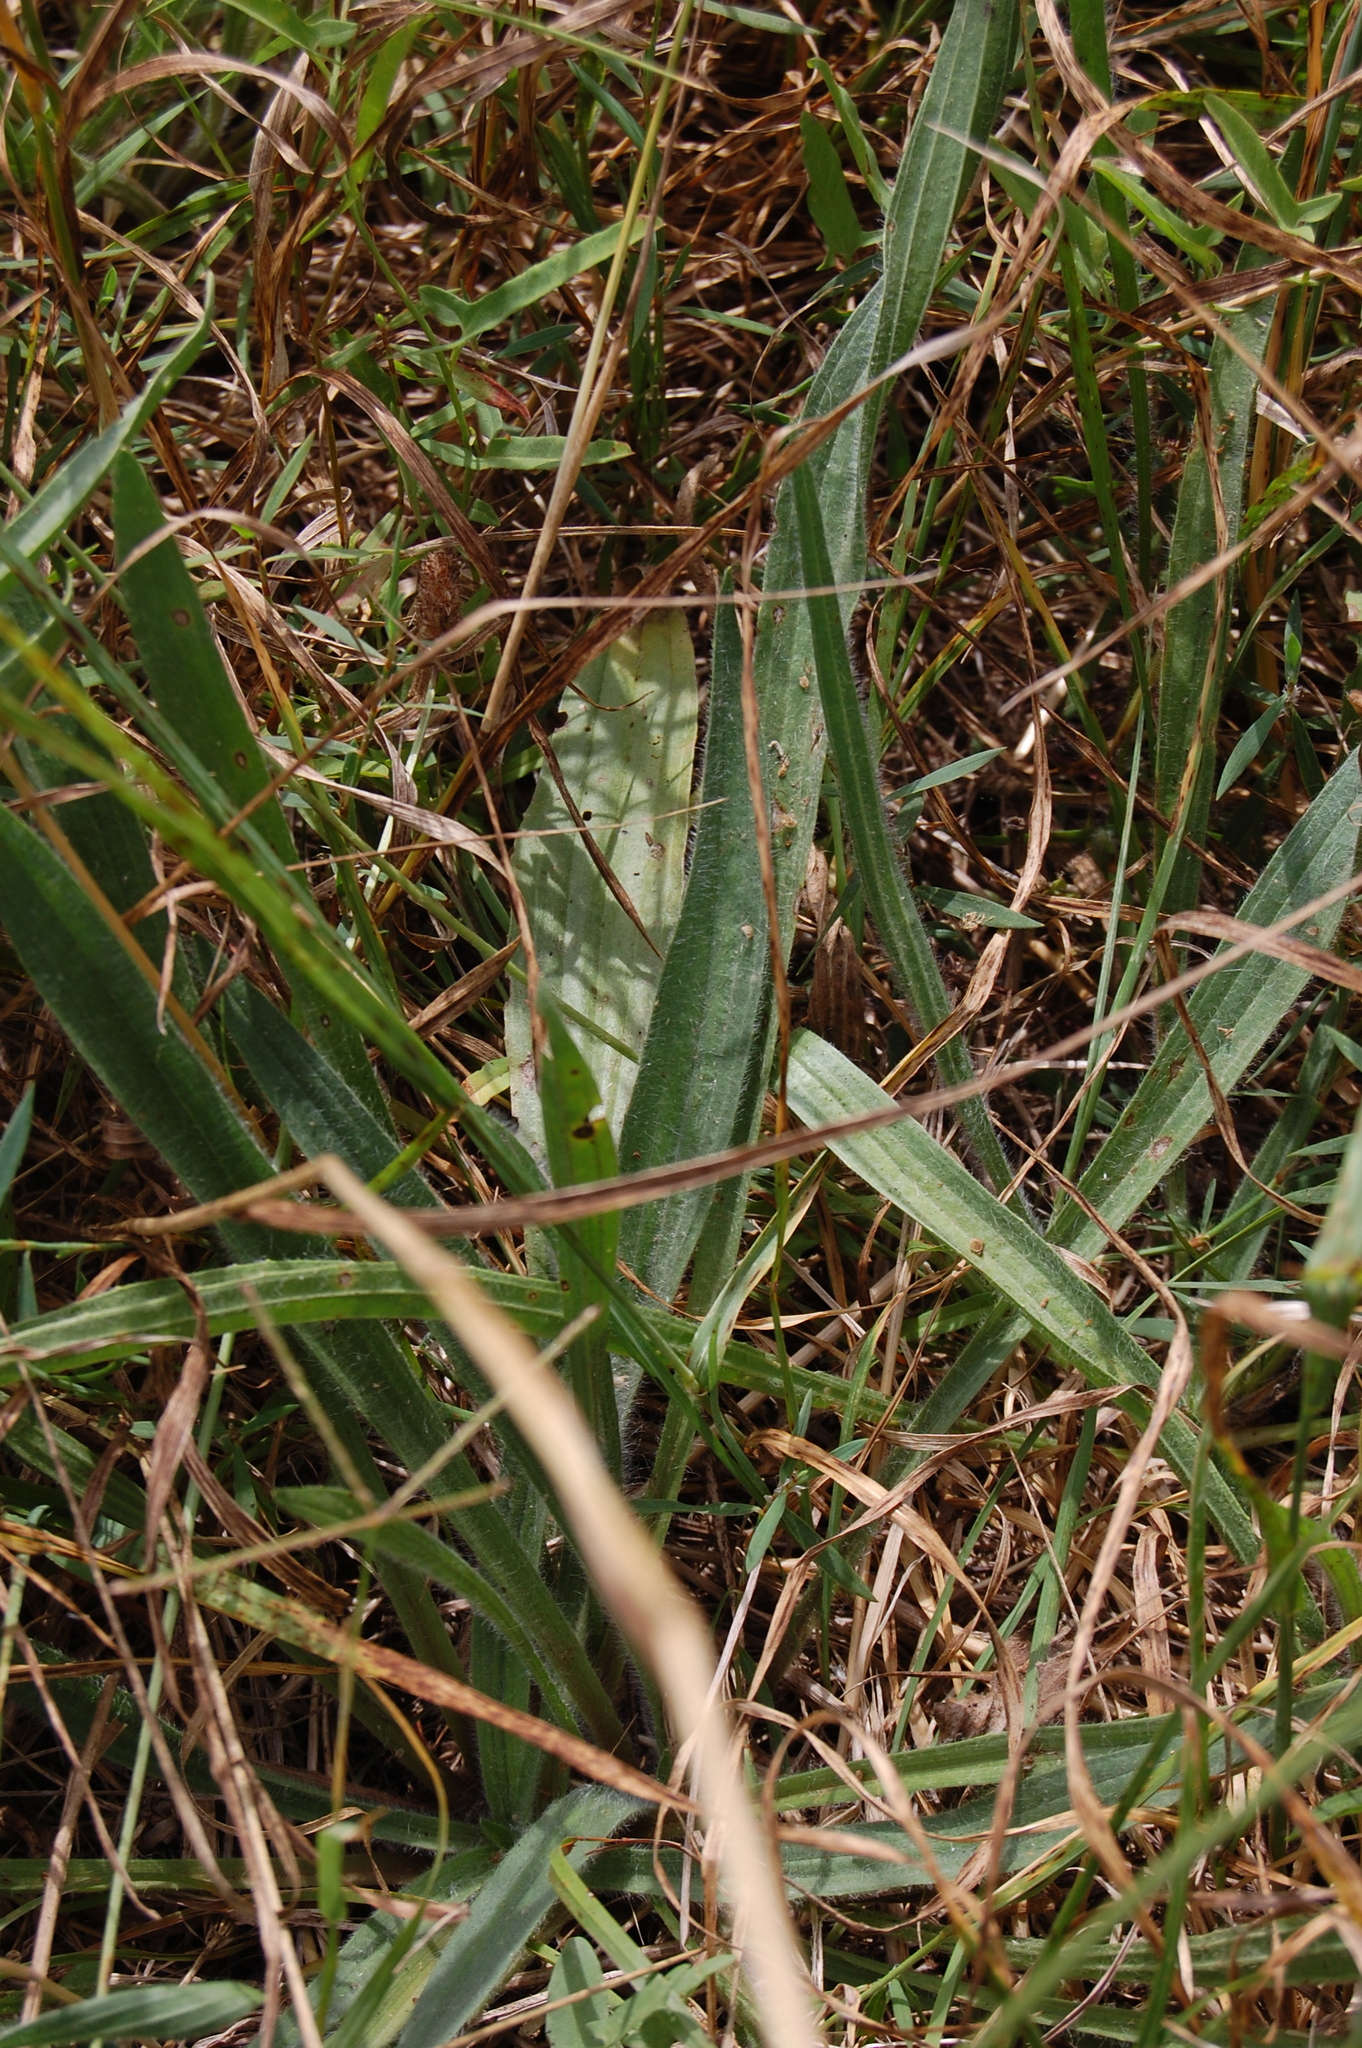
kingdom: Plantae
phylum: Tracheophyta
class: Magnoliopsida
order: Lamiales
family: Plantaginaceae
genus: Plantago
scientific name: Plantago lanceolata
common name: Ribwort plantain
